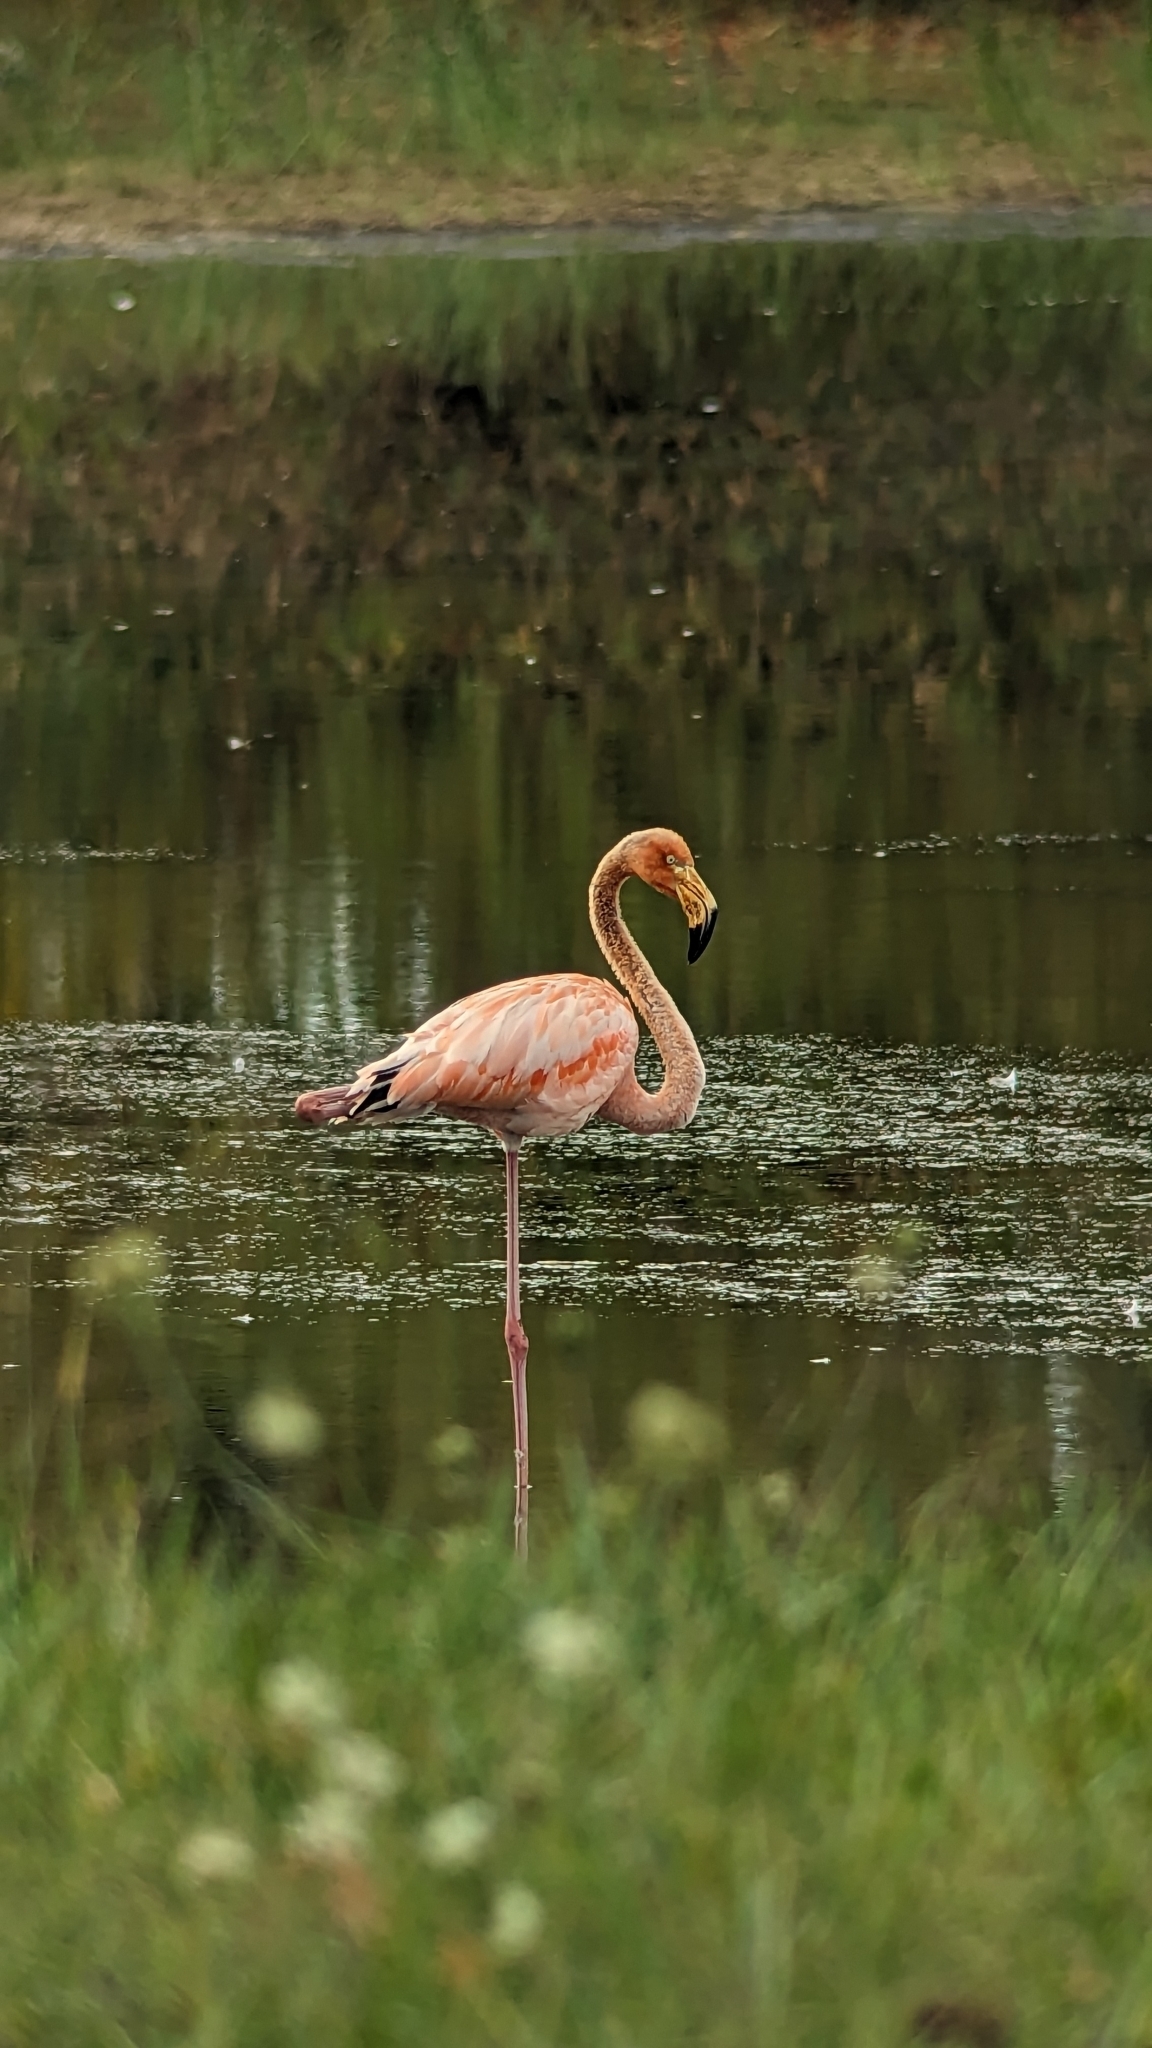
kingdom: Animalia
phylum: Chordata
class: Aves
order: Phoenicopteriformes
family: Phoenicopteridae
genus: Phoenicopterus
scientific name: Phoenicopterus ruber
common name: American flamingo
